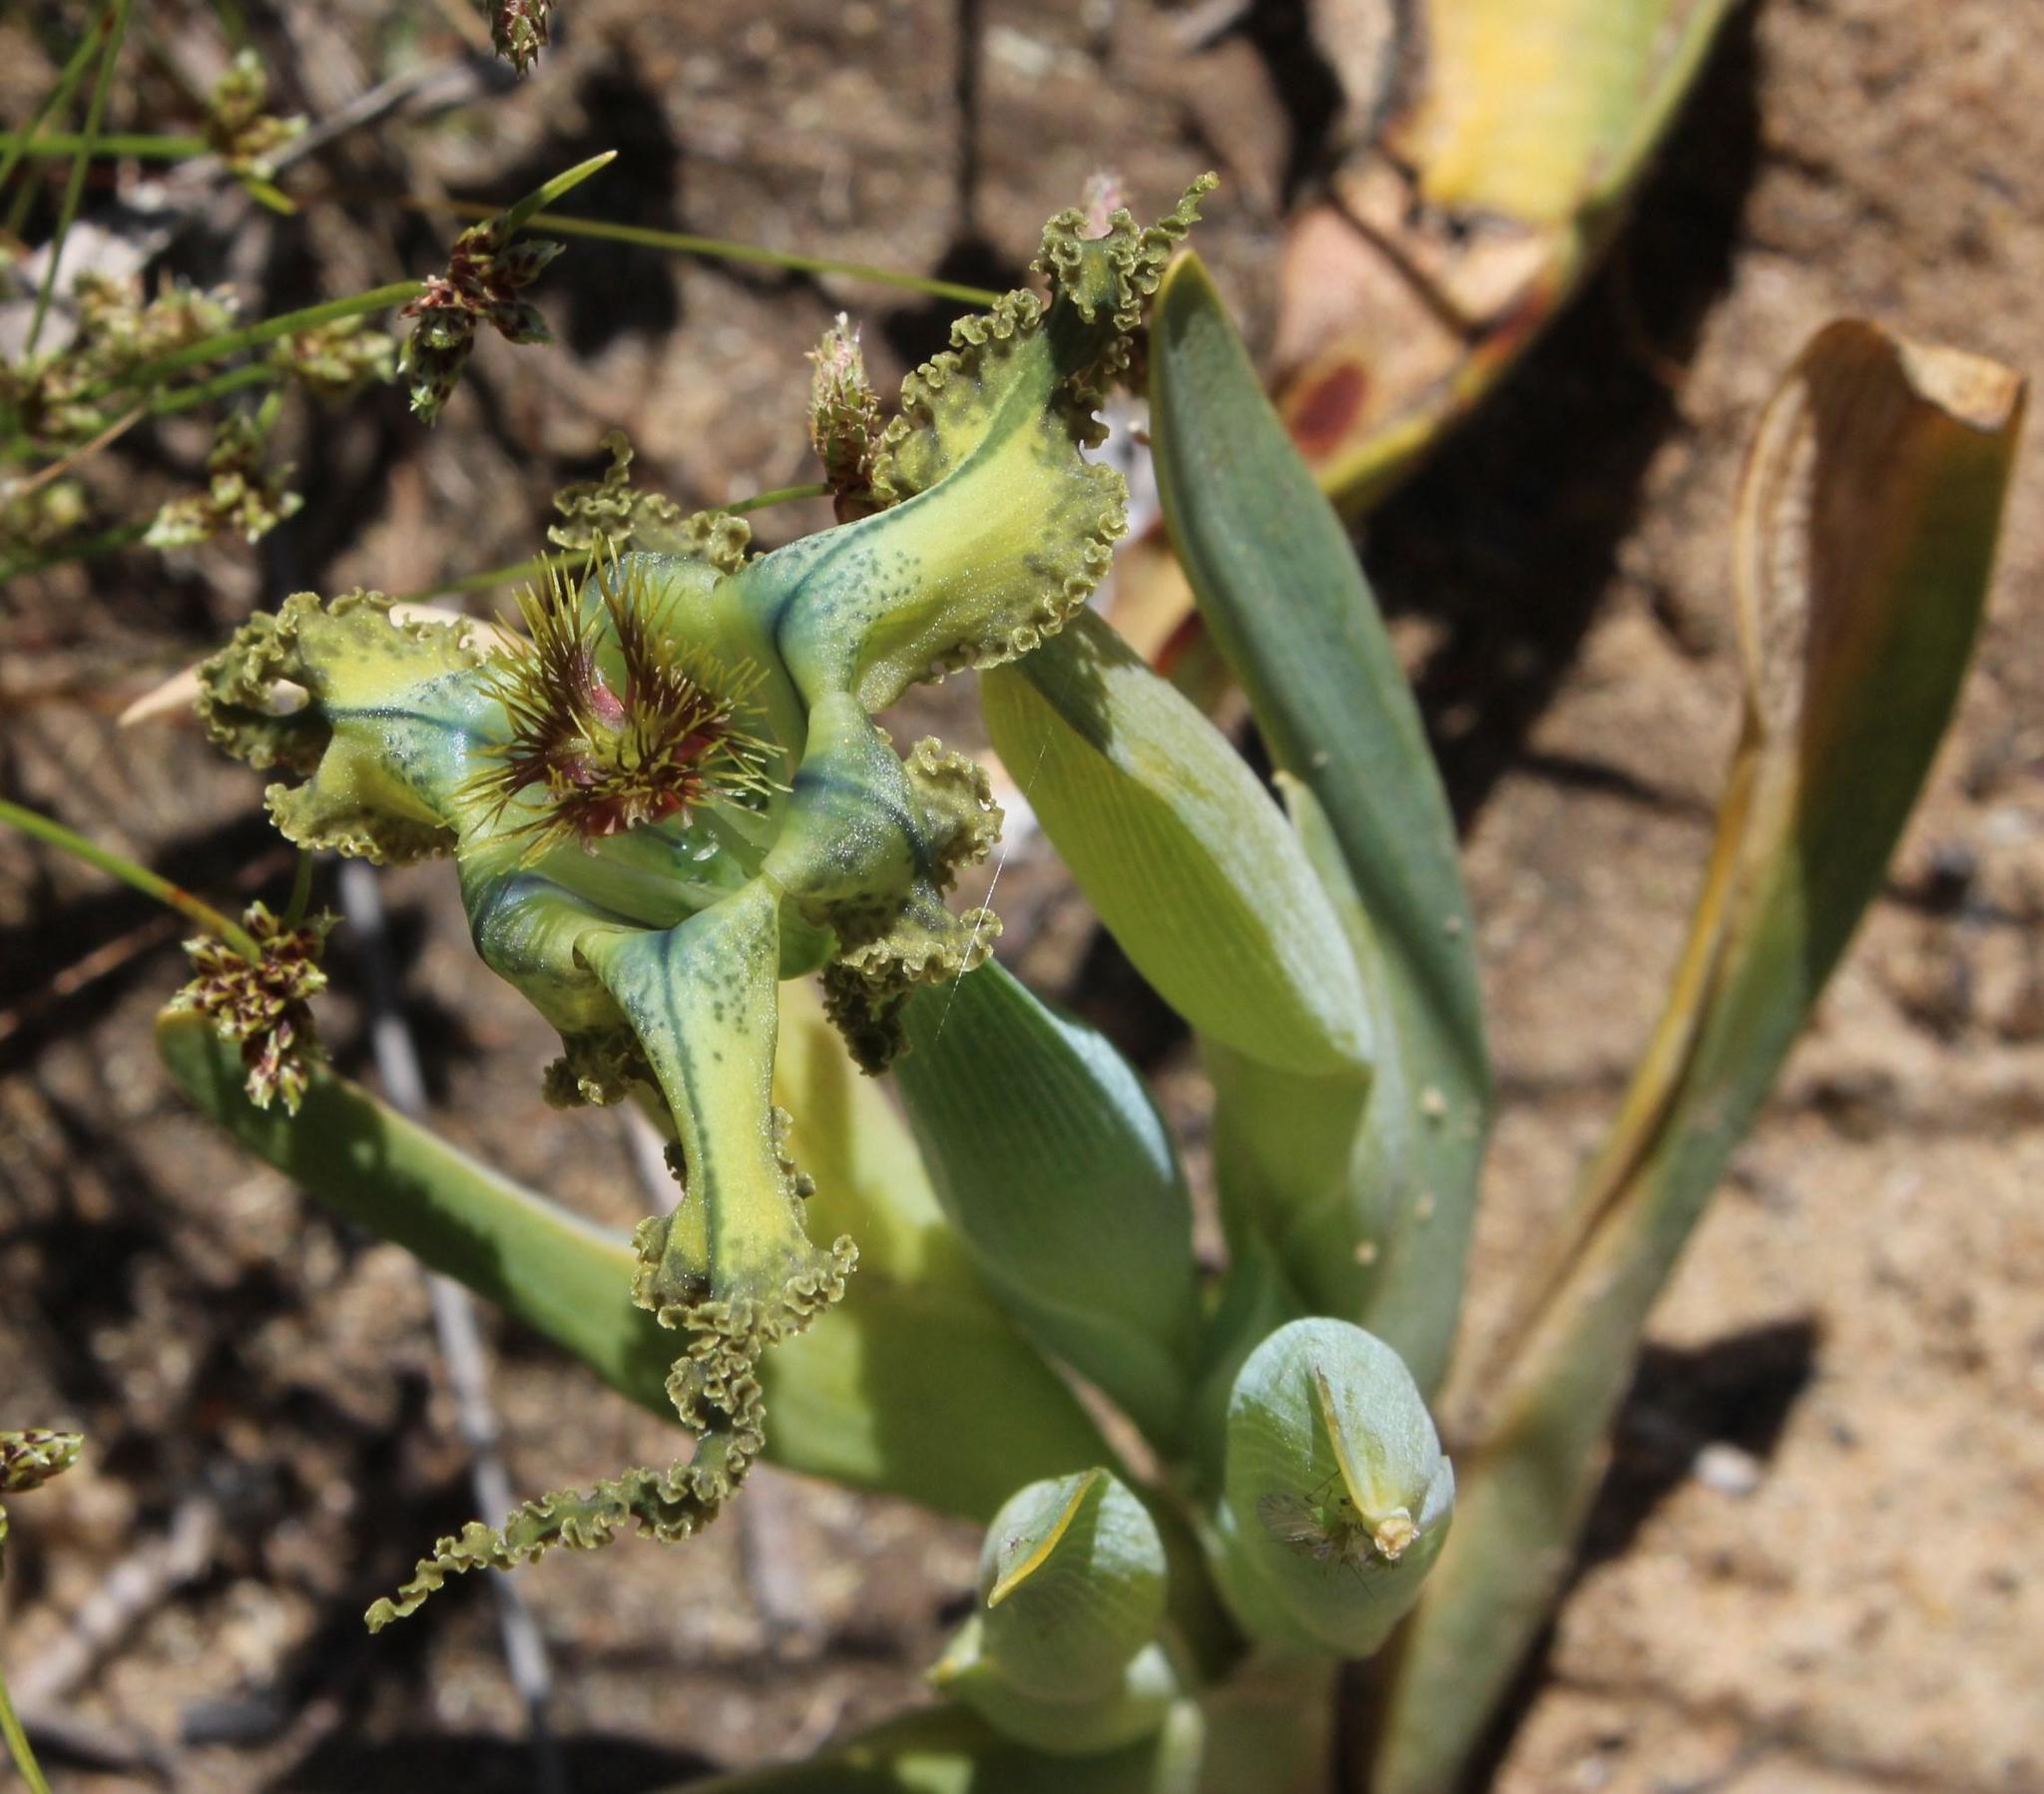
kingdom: Plantae
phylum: Tracheophyta
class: Liliopsida
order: Asparagales
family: Iridaceae
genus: Ferraria
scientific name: Ferraria variabilis
